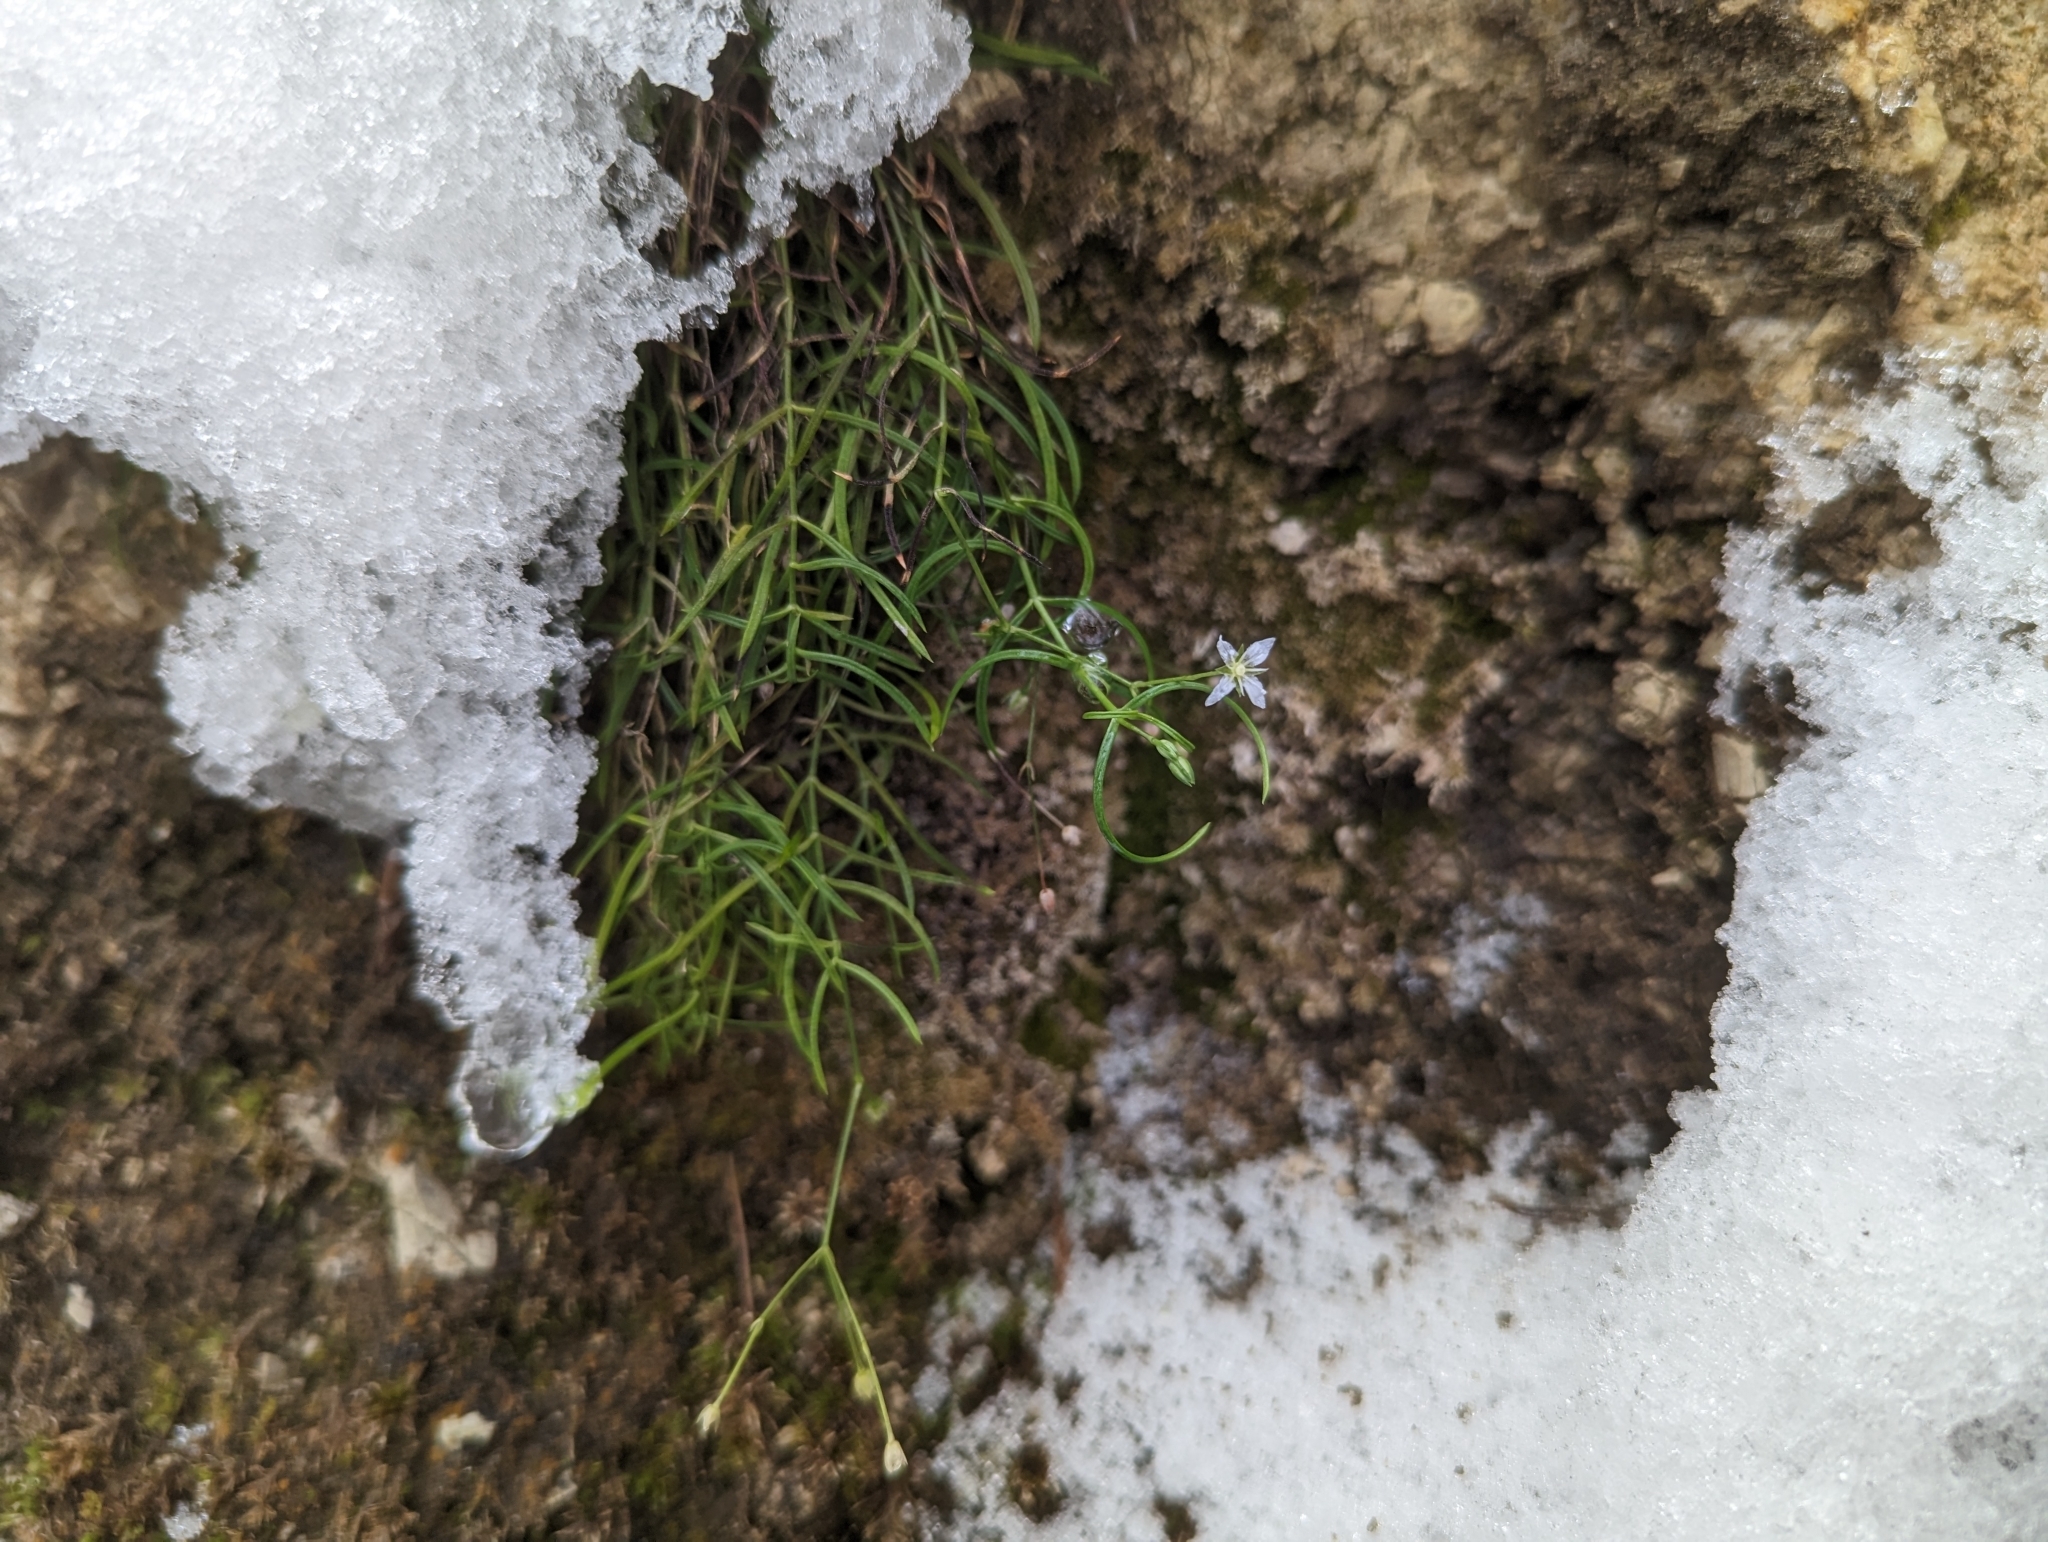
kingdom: Plantae
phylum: Tracheophyta
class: Magnoliopsida
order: Caryophyllales
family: Caryophyllaceae
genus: Moehringia
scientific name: Moehringia muscosa
